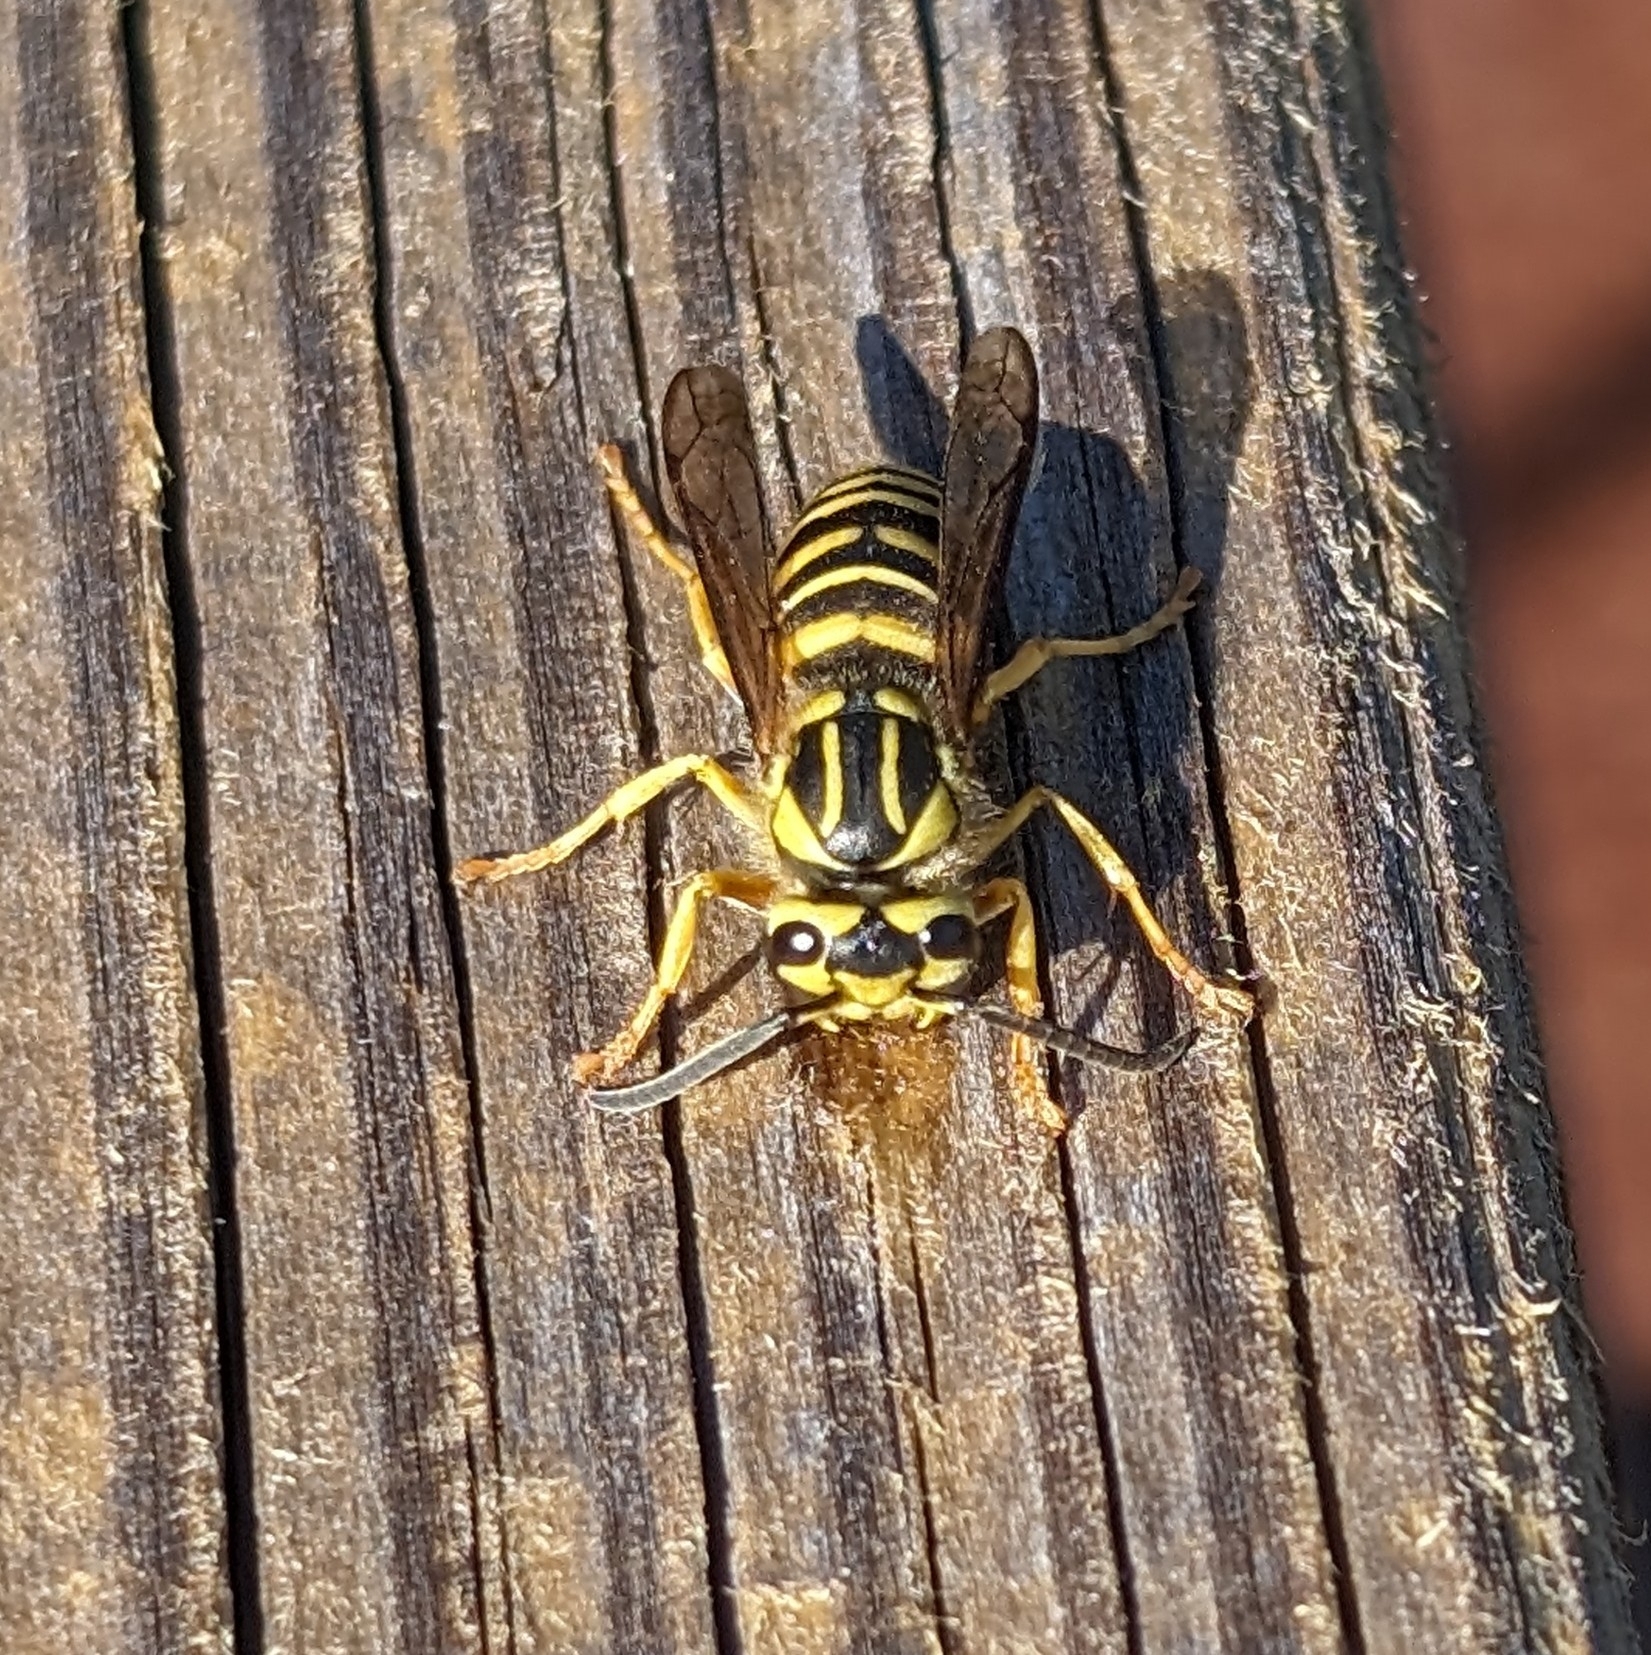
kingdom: Animalia
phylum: Arthropoda
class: Insecta
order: Hymenoptera
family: Vespidae
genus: Vespula
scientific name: Vespula squamosa
